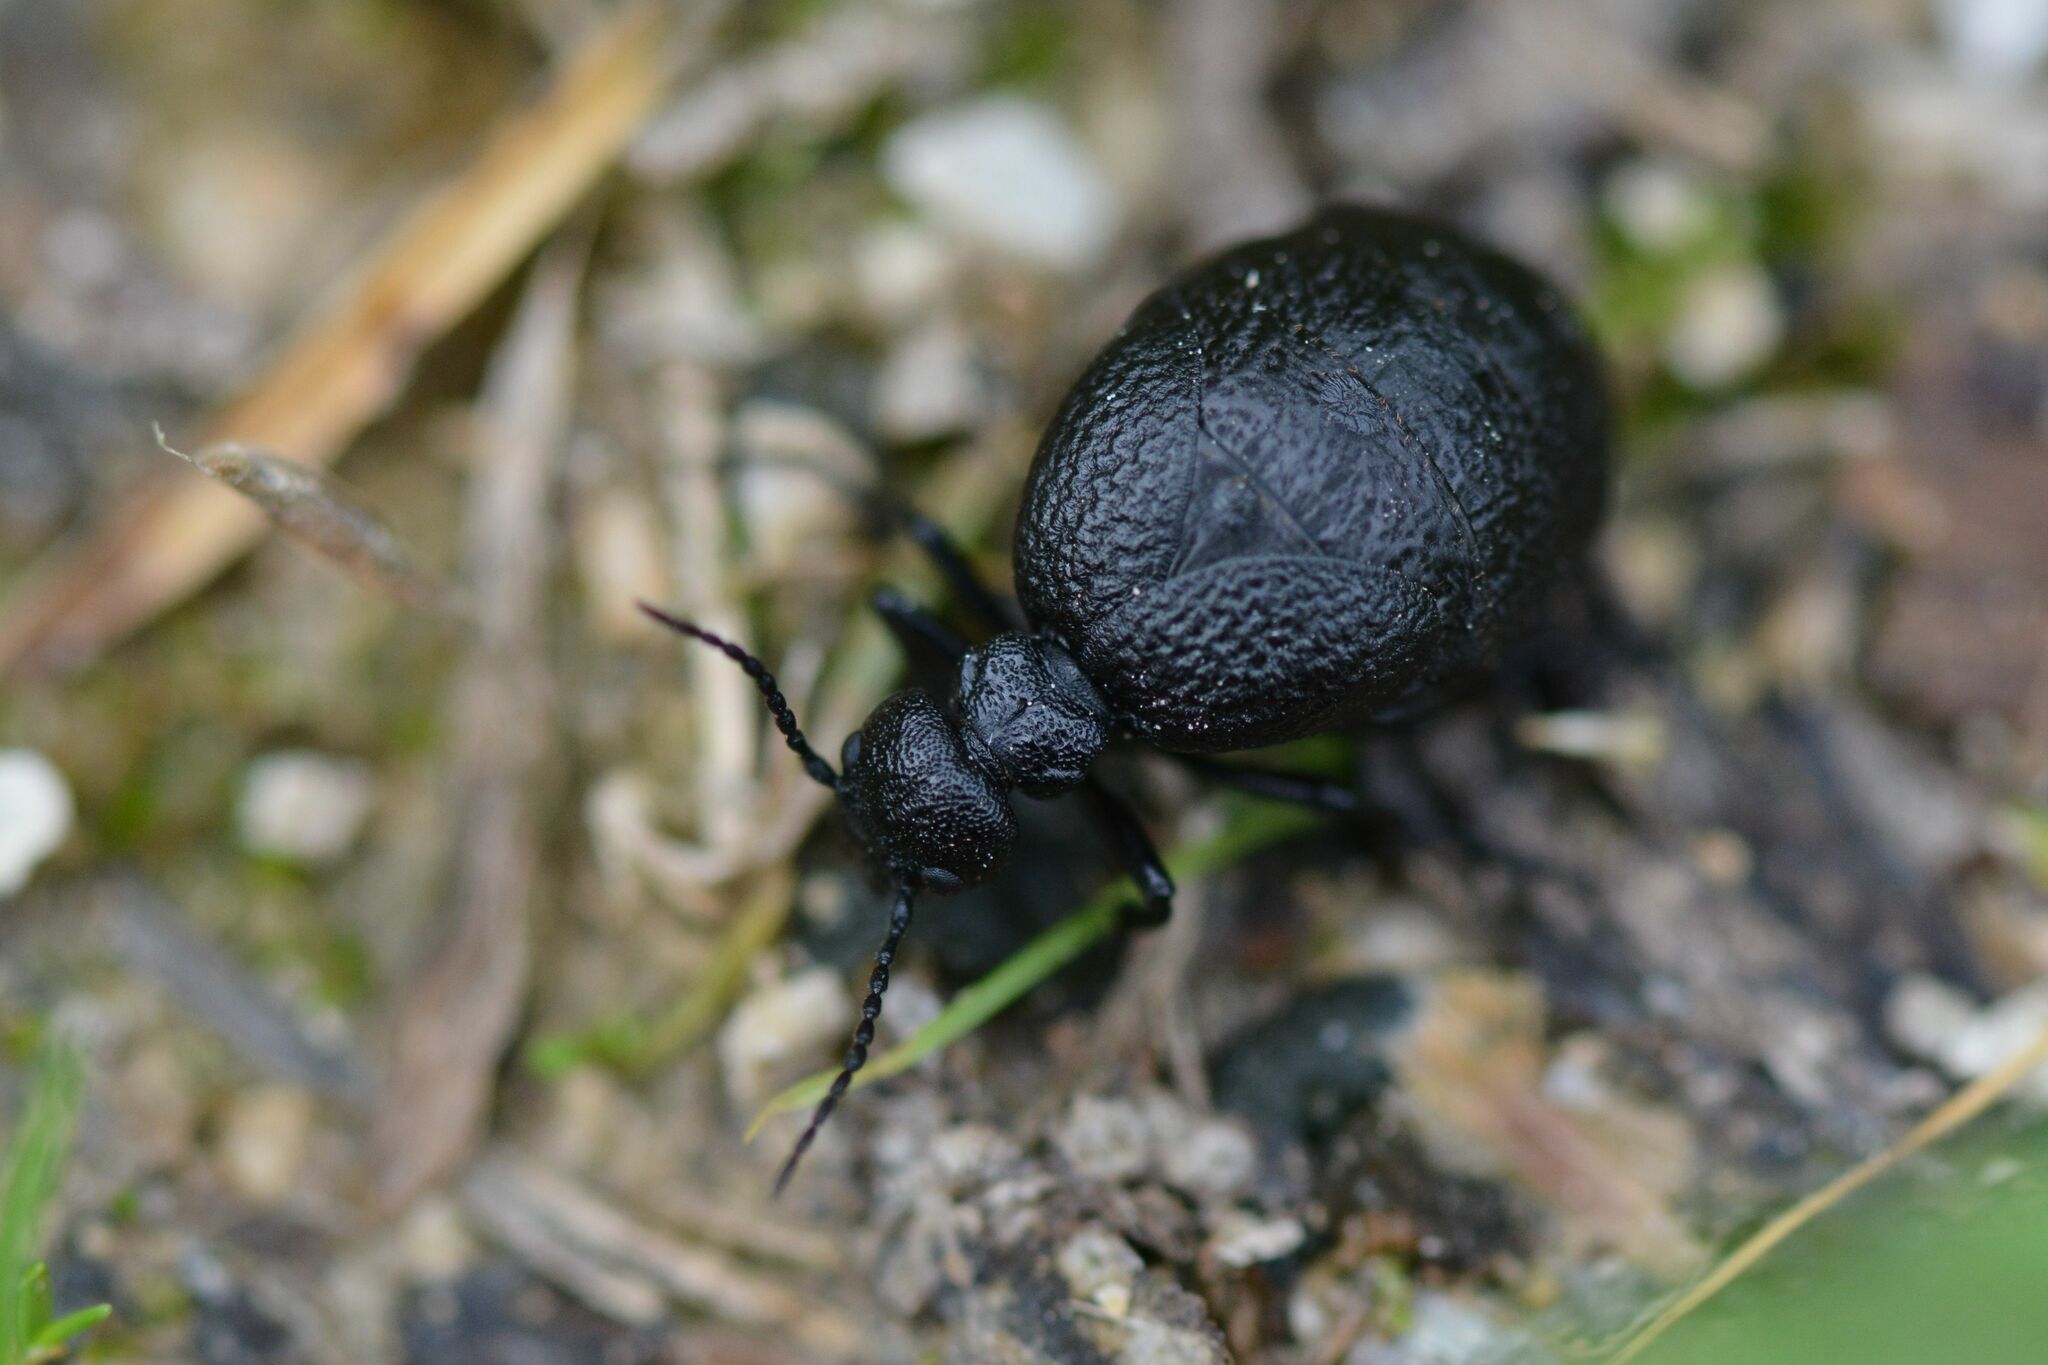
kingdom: Animalia
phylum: Arthropoda
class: Insecta
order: Coleoptera
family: Meloidae
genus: Meloe
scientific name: Meloe rugosus
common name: Rugged oil-beetle
